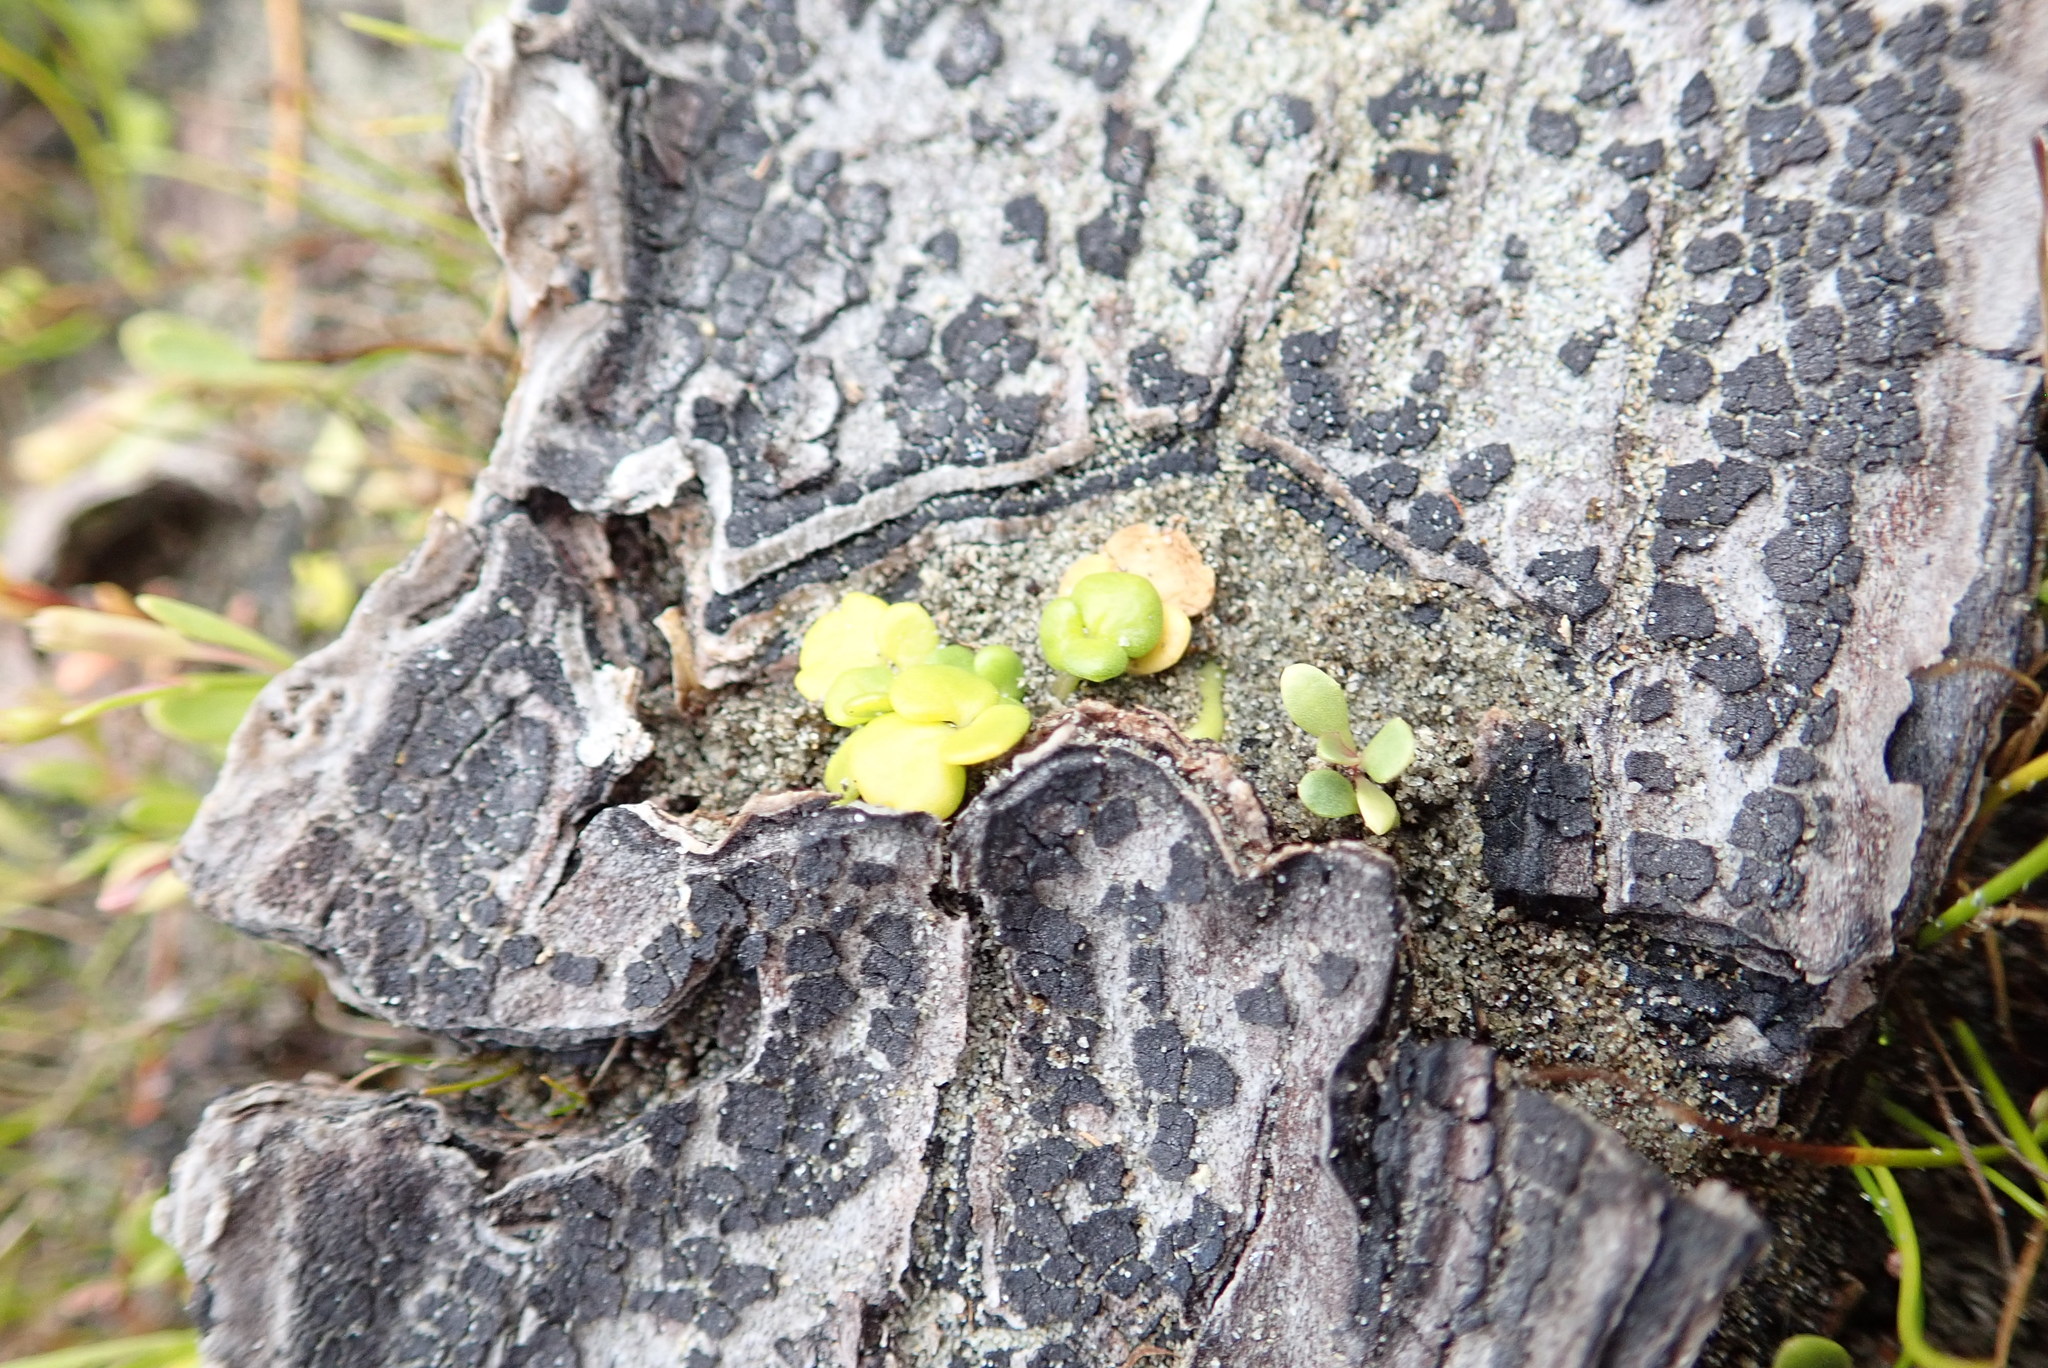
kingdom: Plantae
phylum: Tracheophyta
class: Magnoliopsida
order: Ranunculales
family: Ranunculaceae
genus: Ranunculus
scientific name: Ranunculus acaulis
